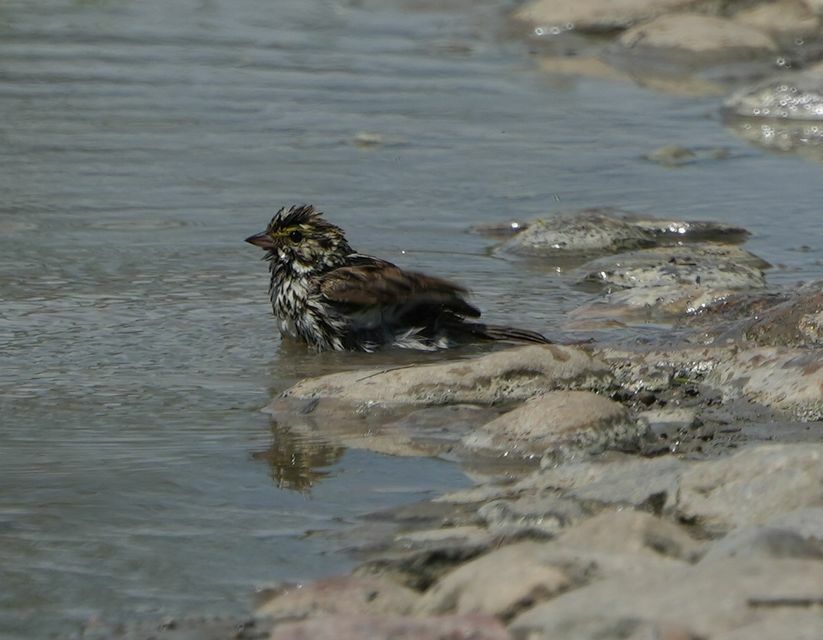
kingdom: Animalia
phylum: Chordata
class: Aves
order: Passeriformes
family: Passerellidae
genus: Passerculus
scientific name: Passerculus sandwichensis
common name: Savannah sparrow
